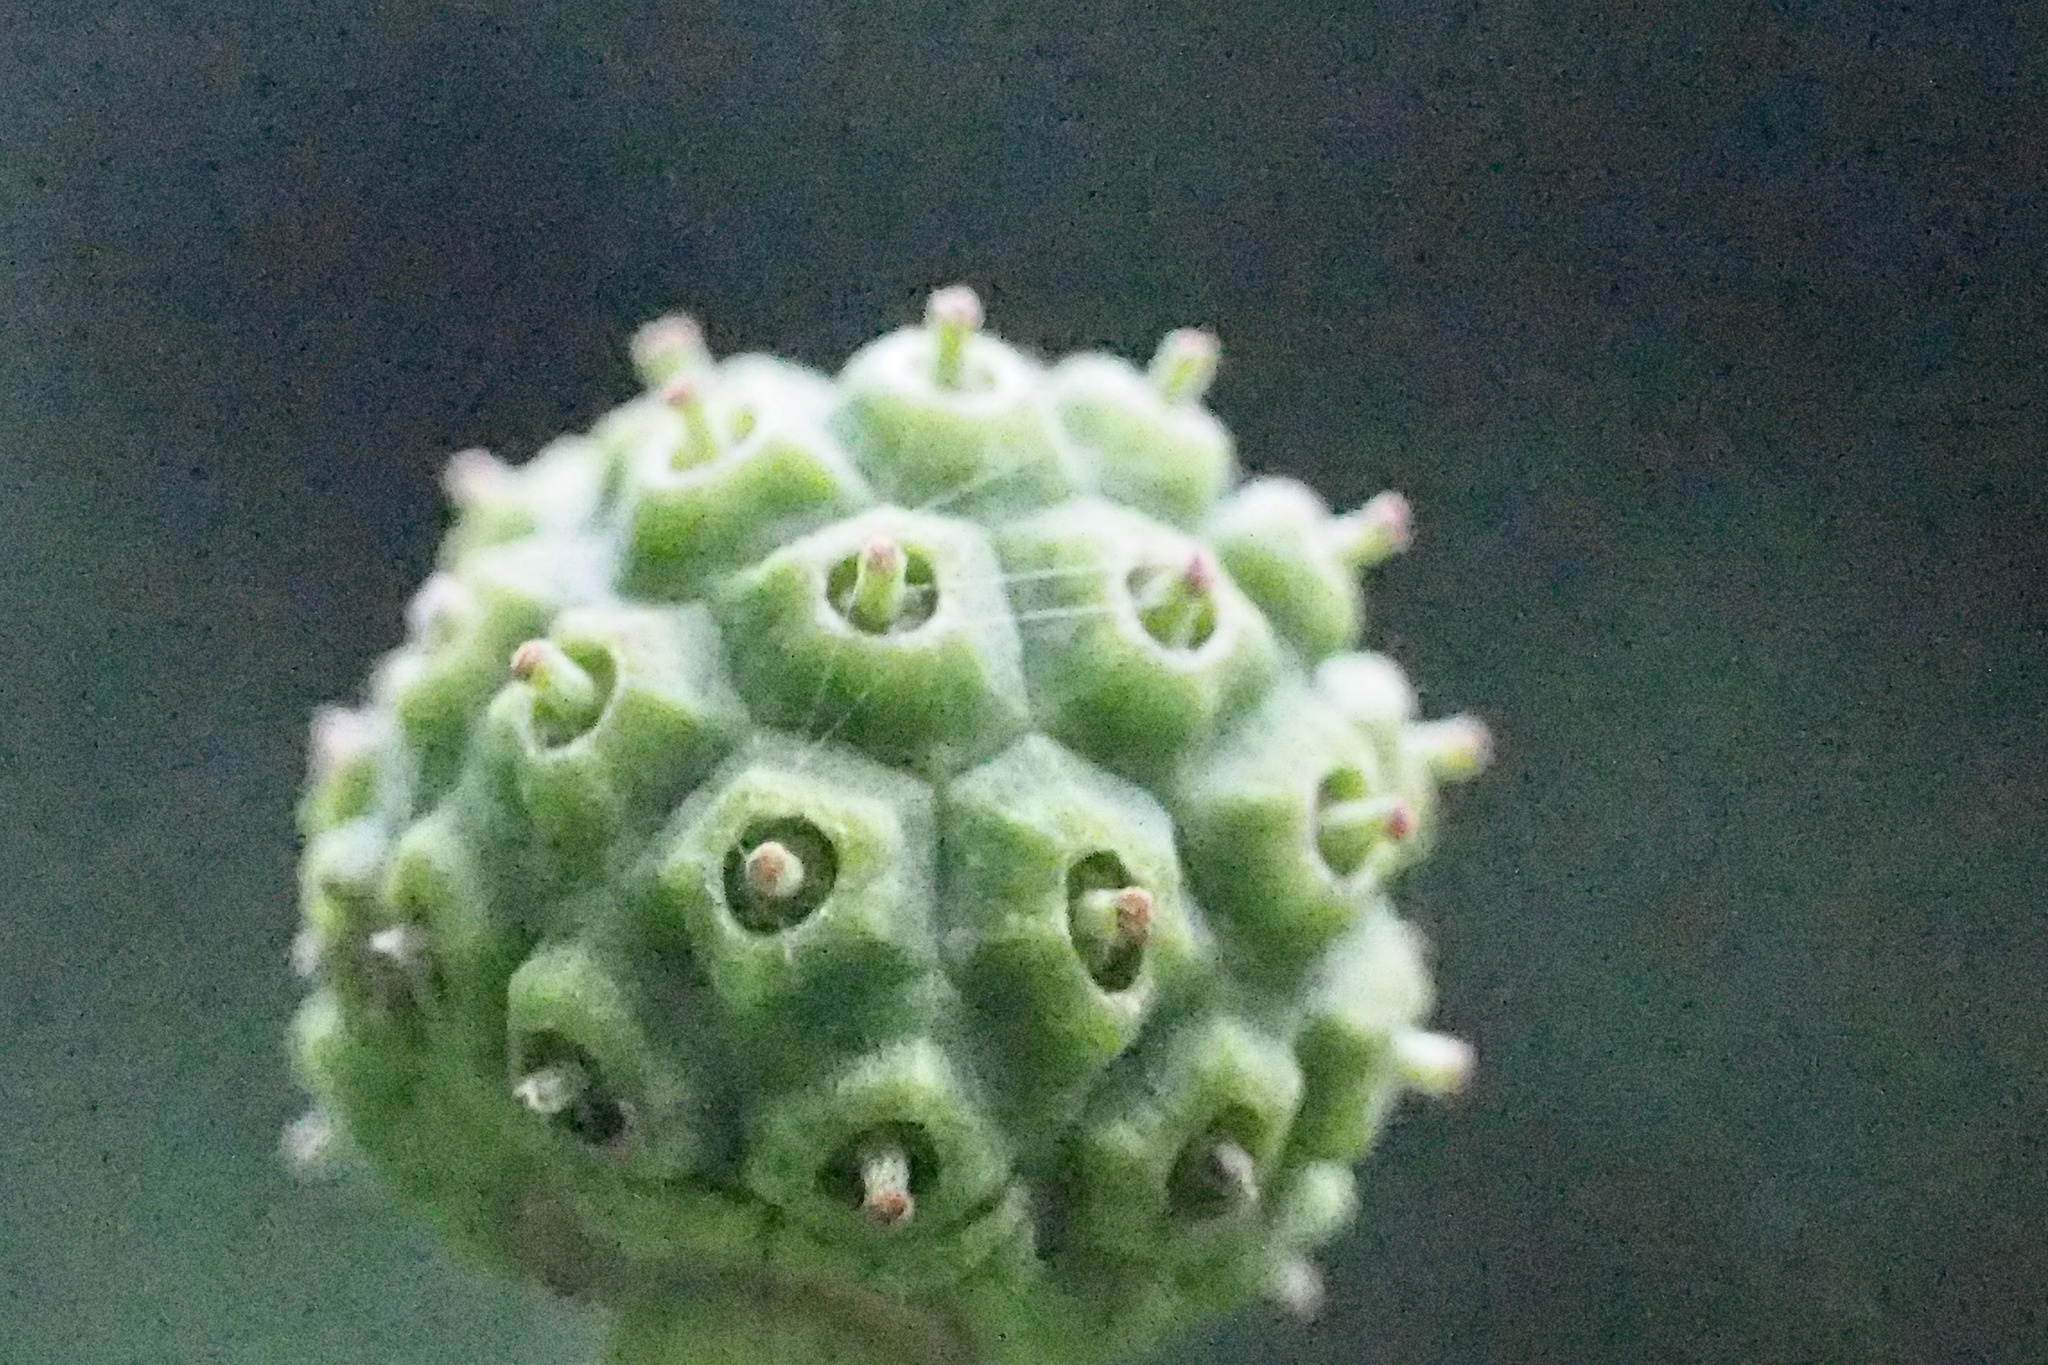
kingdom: Plantae
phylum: Tracheophyta
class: Magnoliopsida
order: Cornales
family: Cornaceae
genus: Cornus
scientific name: Cornus kousa
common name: Japanese dogwood
